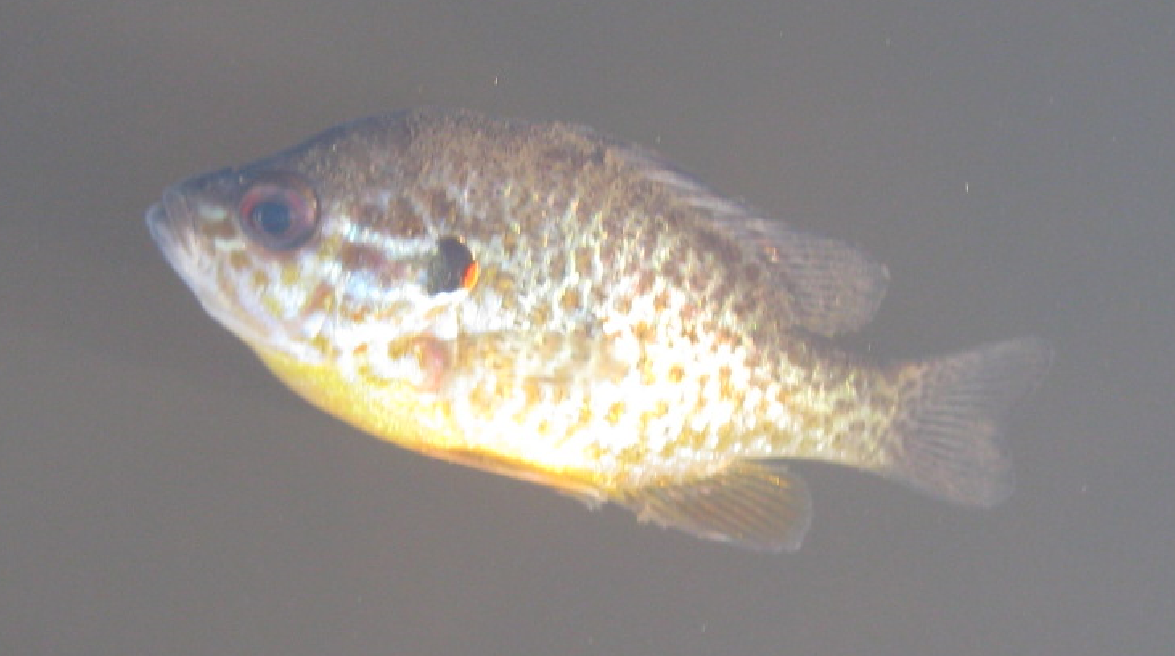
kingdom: Animalia
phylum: Chordata
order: Perciformes
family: Centrarchidae
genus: Lepomis
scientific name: Lepomis gibbosus
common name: Pumpkinseed
